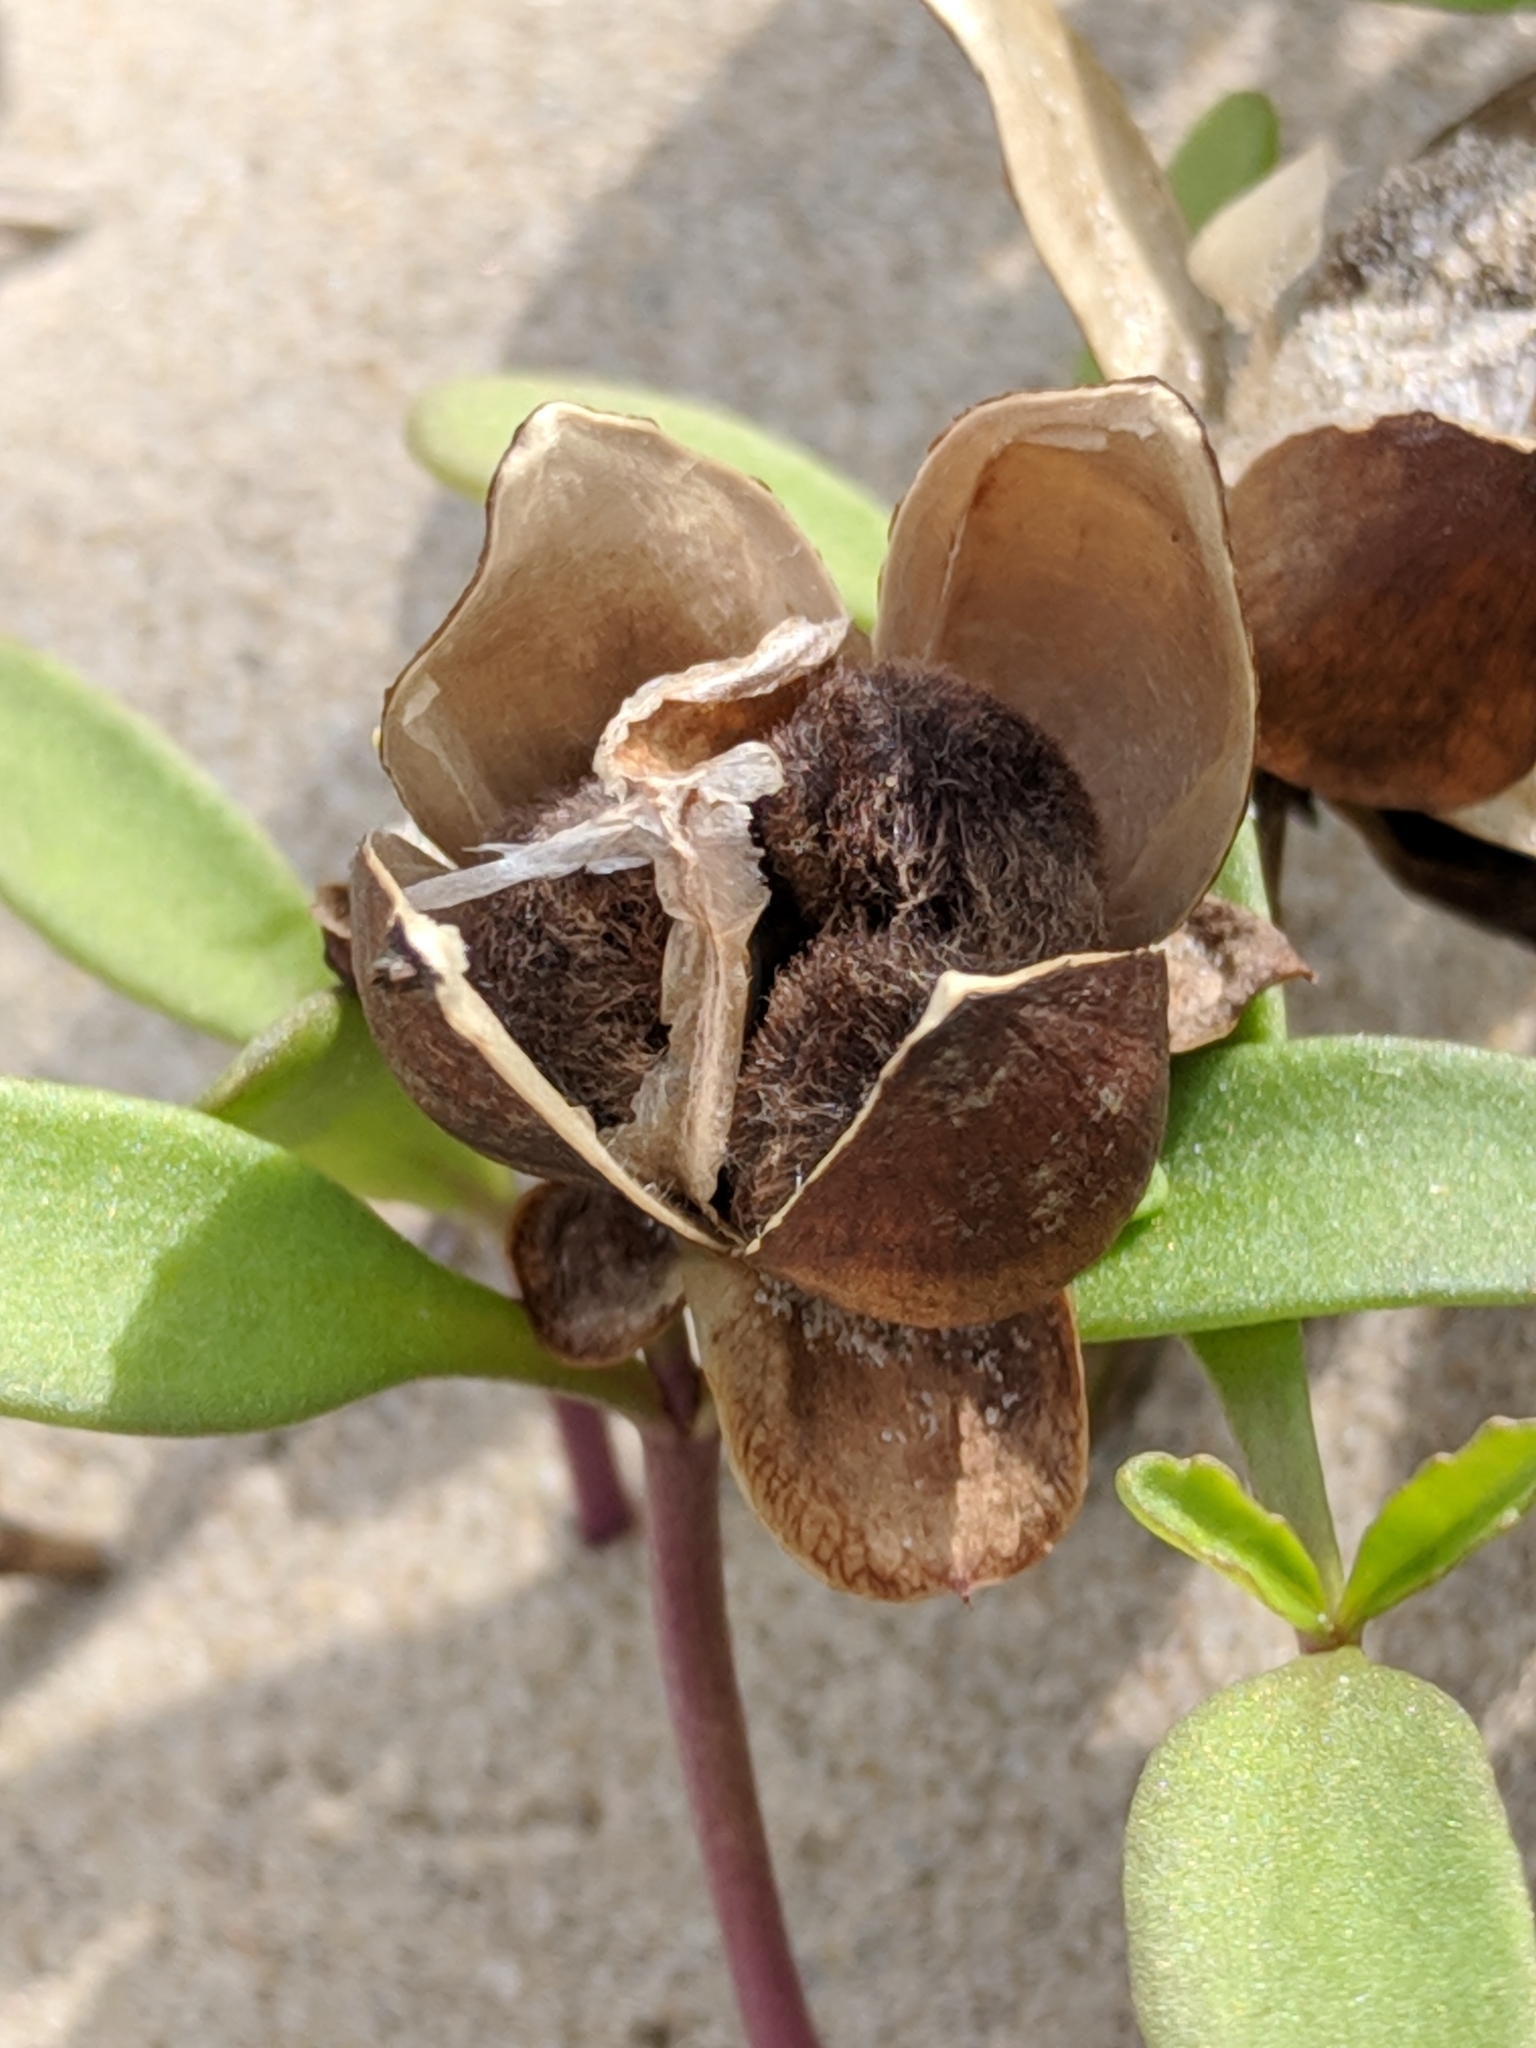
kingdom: Plantae
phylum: Tracheophyta
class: Magnoliopsida
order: Solanales
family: Convolvulaceae
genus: Ipomoea
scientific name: Ipomoea pes-caprae
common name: Beach morning glory
